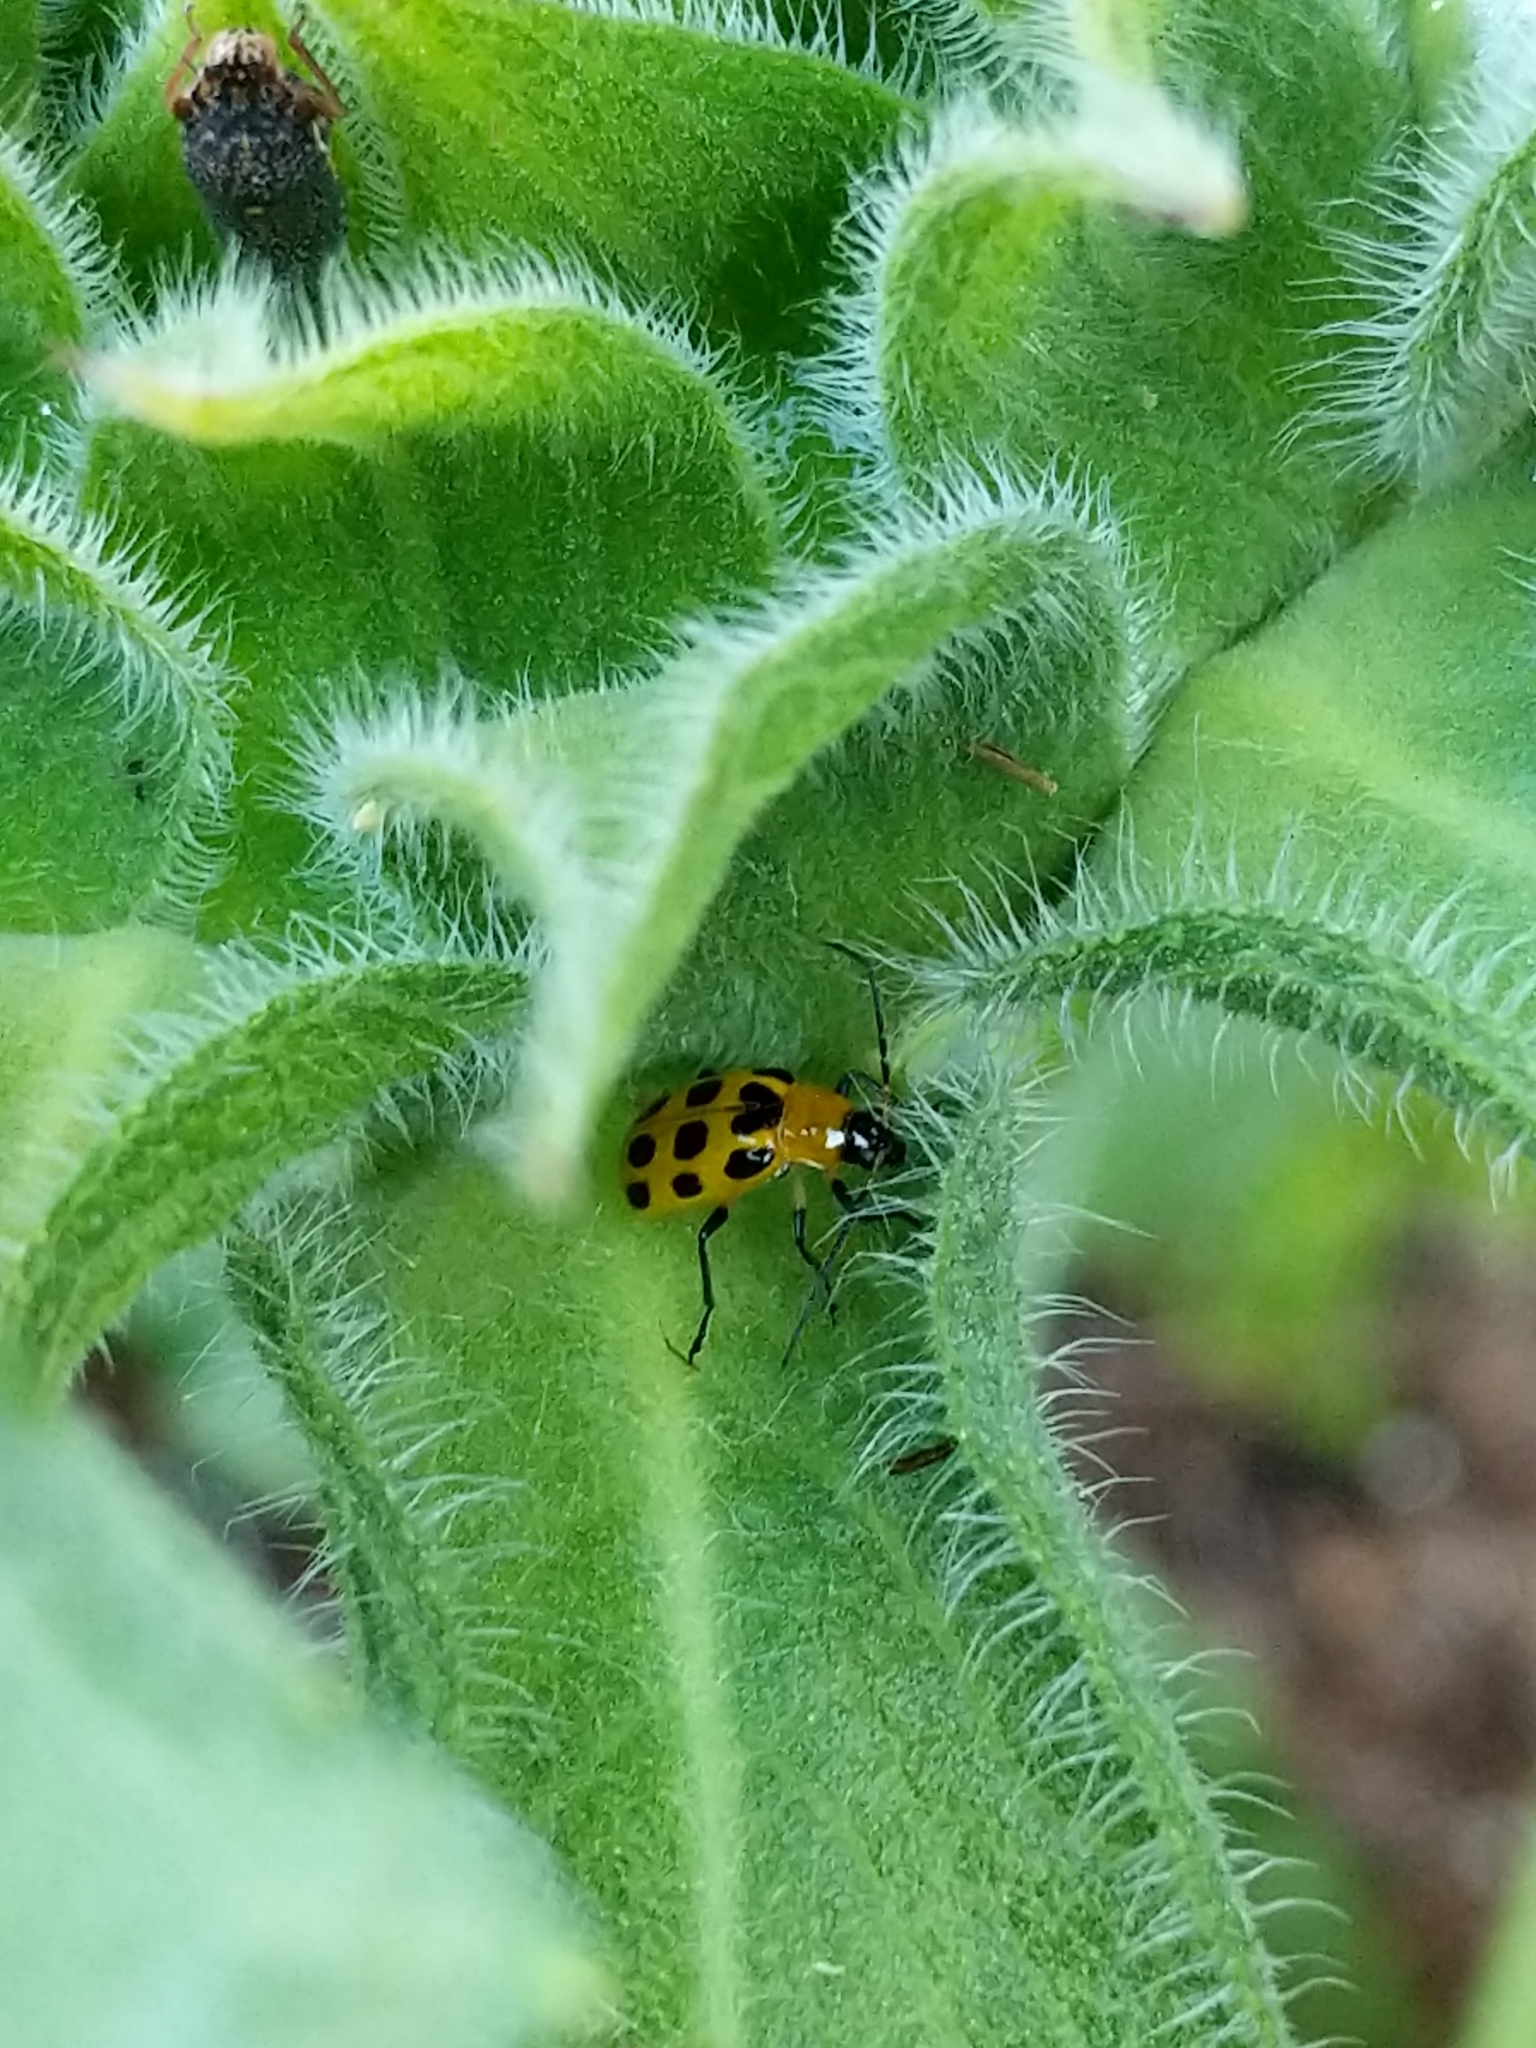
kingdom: Animalia
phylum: Arthropoda
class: Insecta
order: Coleoptera
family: Chrysomelidae
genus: Diabrotica
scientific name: Diabrotica undecimpunctata
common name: Spotted cucumber beetle
